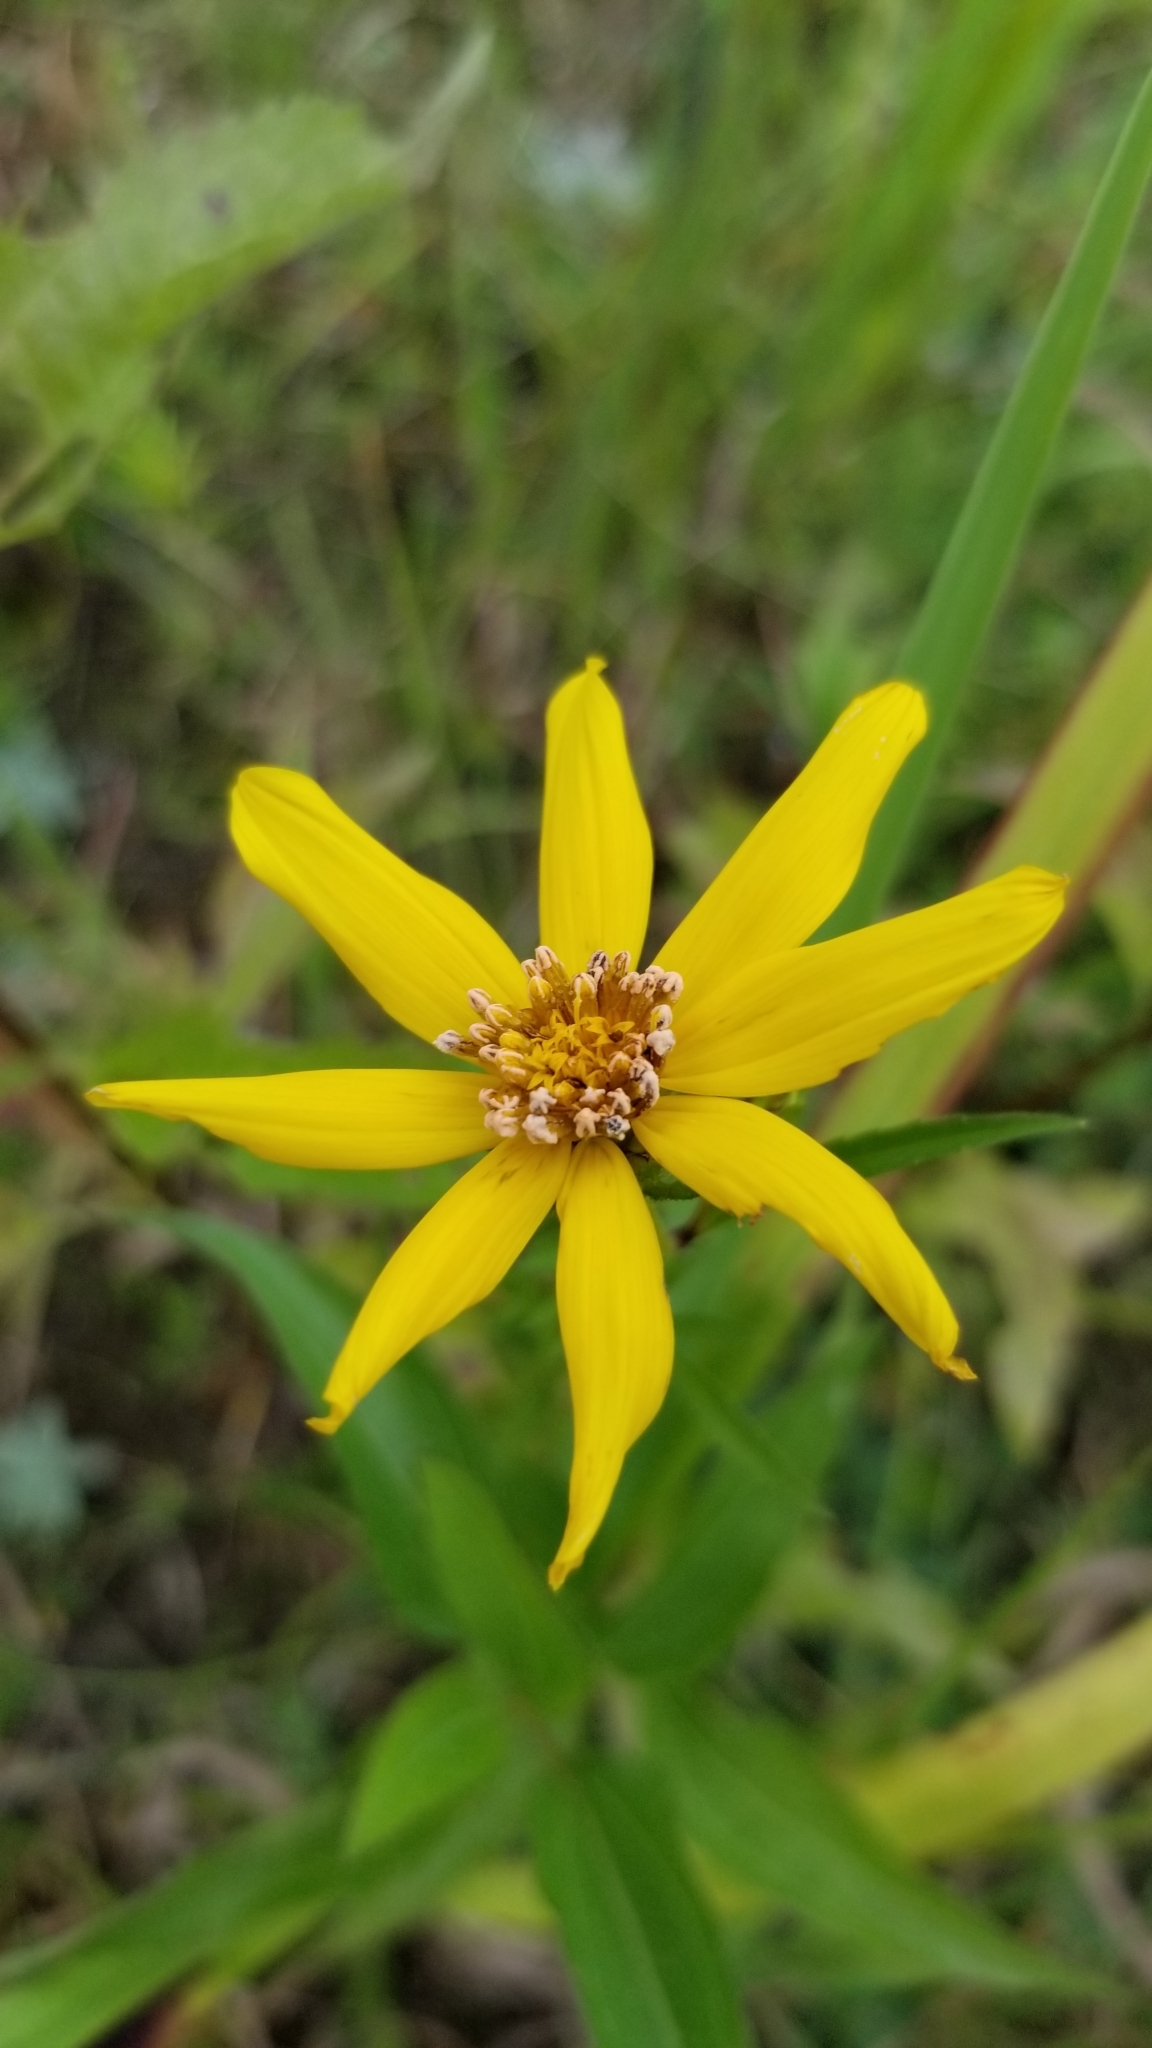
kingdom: Plantae
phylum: Tracheophyta
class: Magnoliopsida
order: Asterales
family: Asteraceae
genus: Coreopsis
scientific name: Coreopsis major
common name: Forest tickseed
